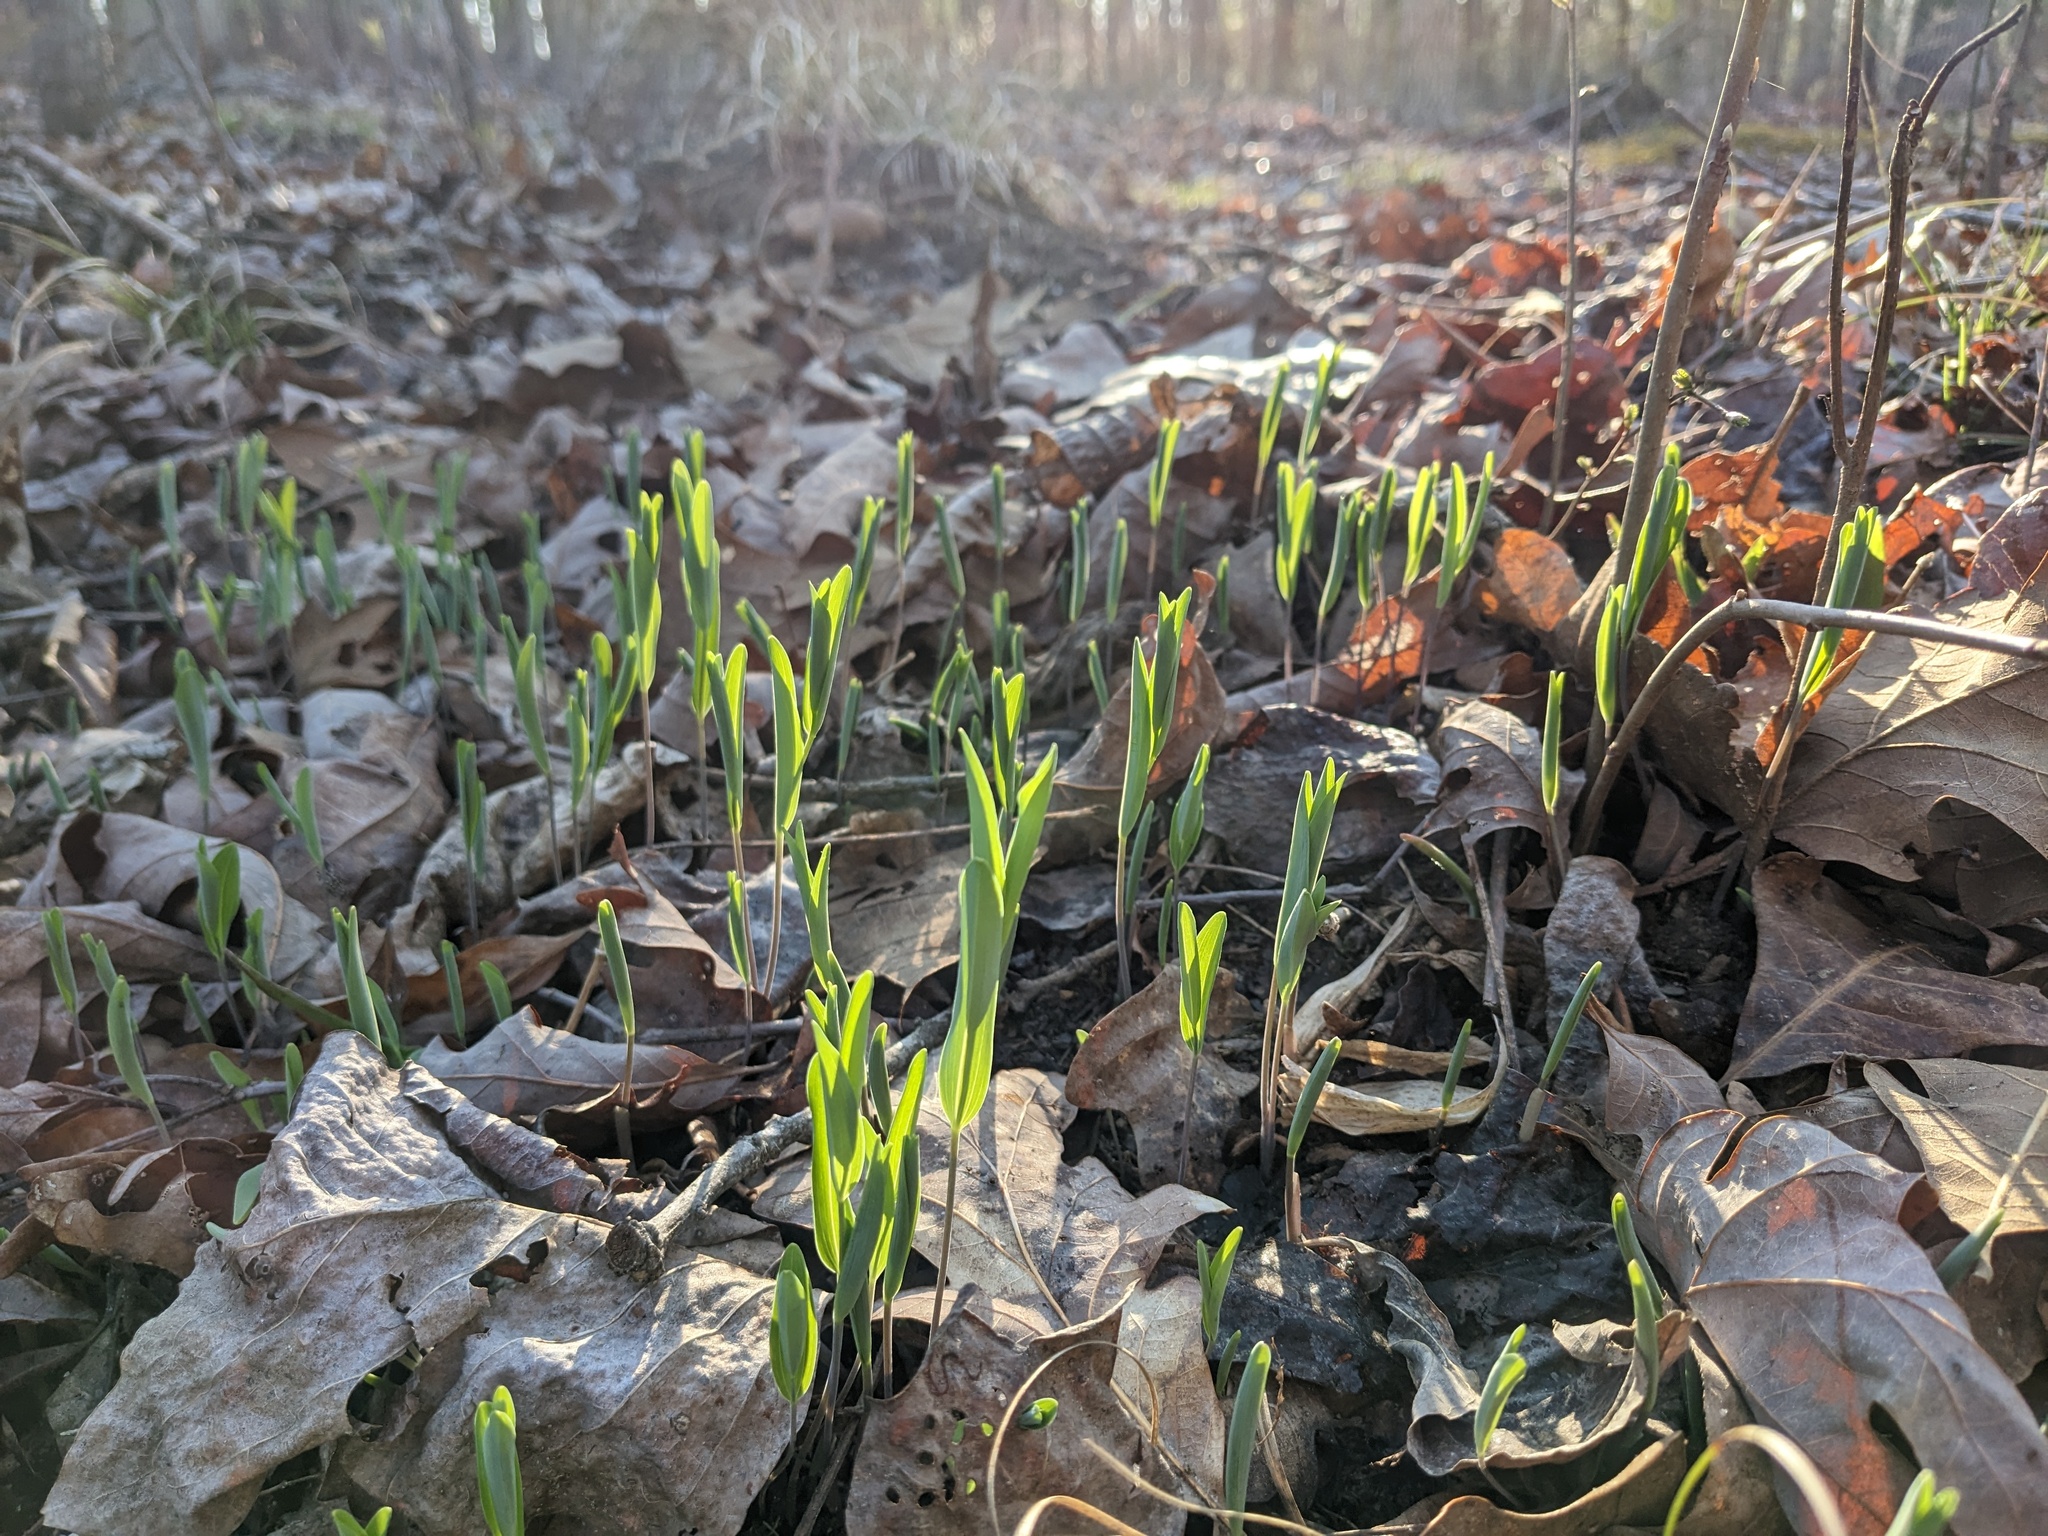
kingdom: Plantae
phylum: Tracheophyta
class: Liliopsida
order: Asparagales
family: Asparagaceae
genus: Polygonatum
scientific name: Polygonatum biflorum
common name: American solomon's-seal
